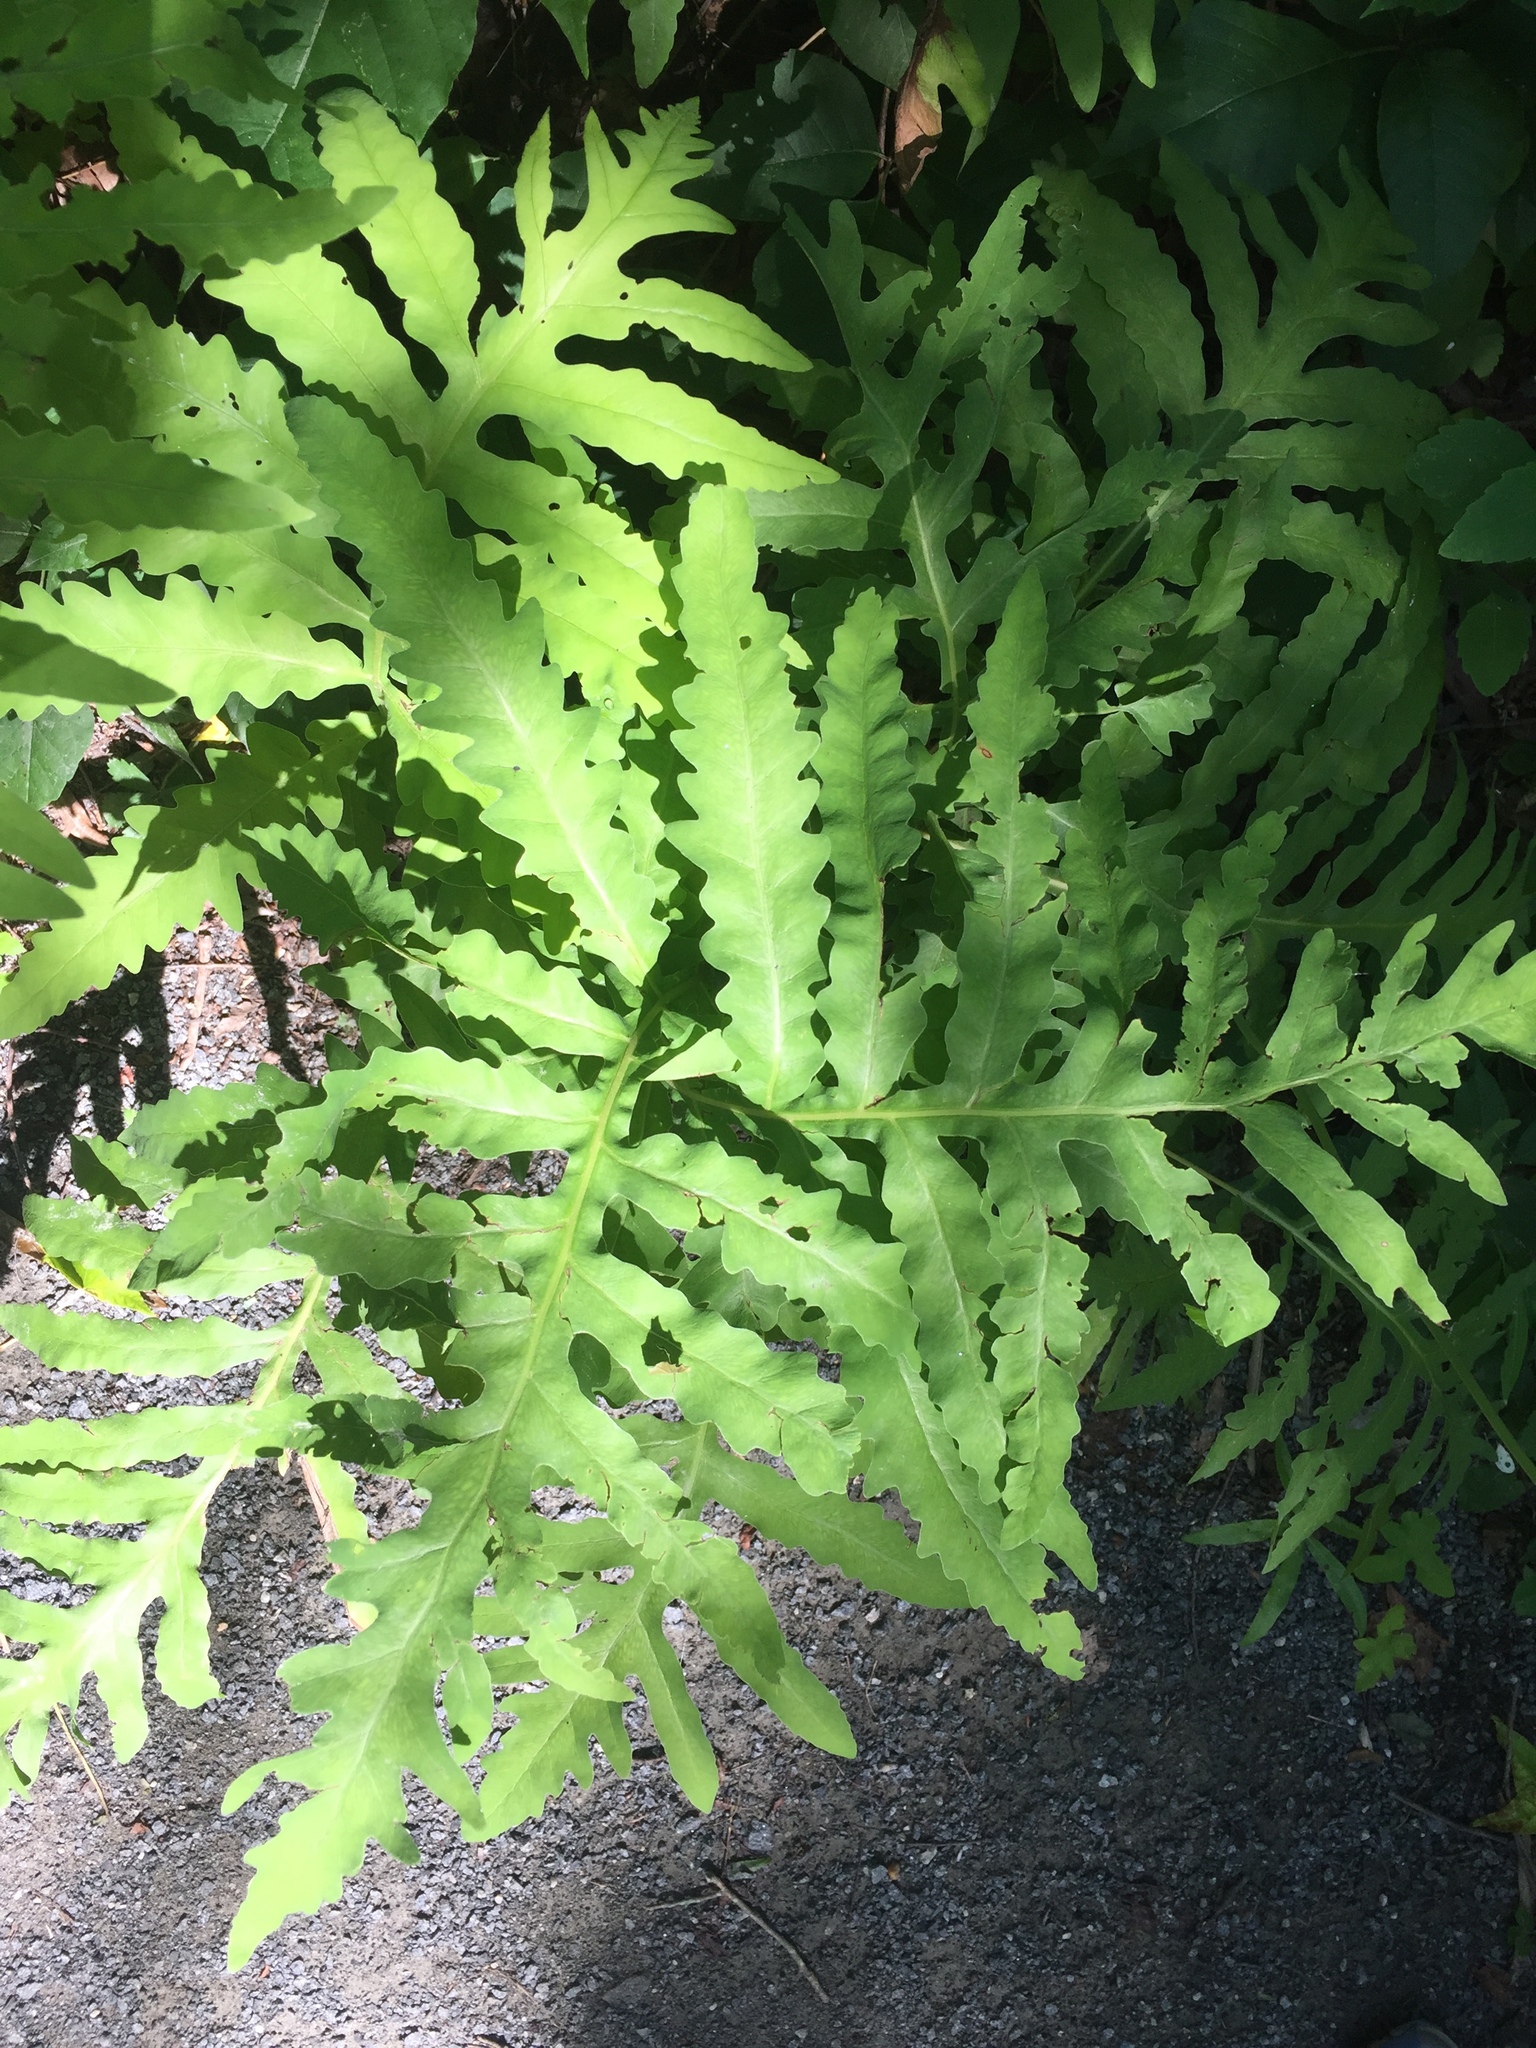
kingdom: Plantae
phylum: Tracheophyta
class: Polypodiopsida
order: Polypodiales
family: Onocleaceae
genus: Onoclea
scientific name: Onoclea sensibilis
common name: Sensitive fern
